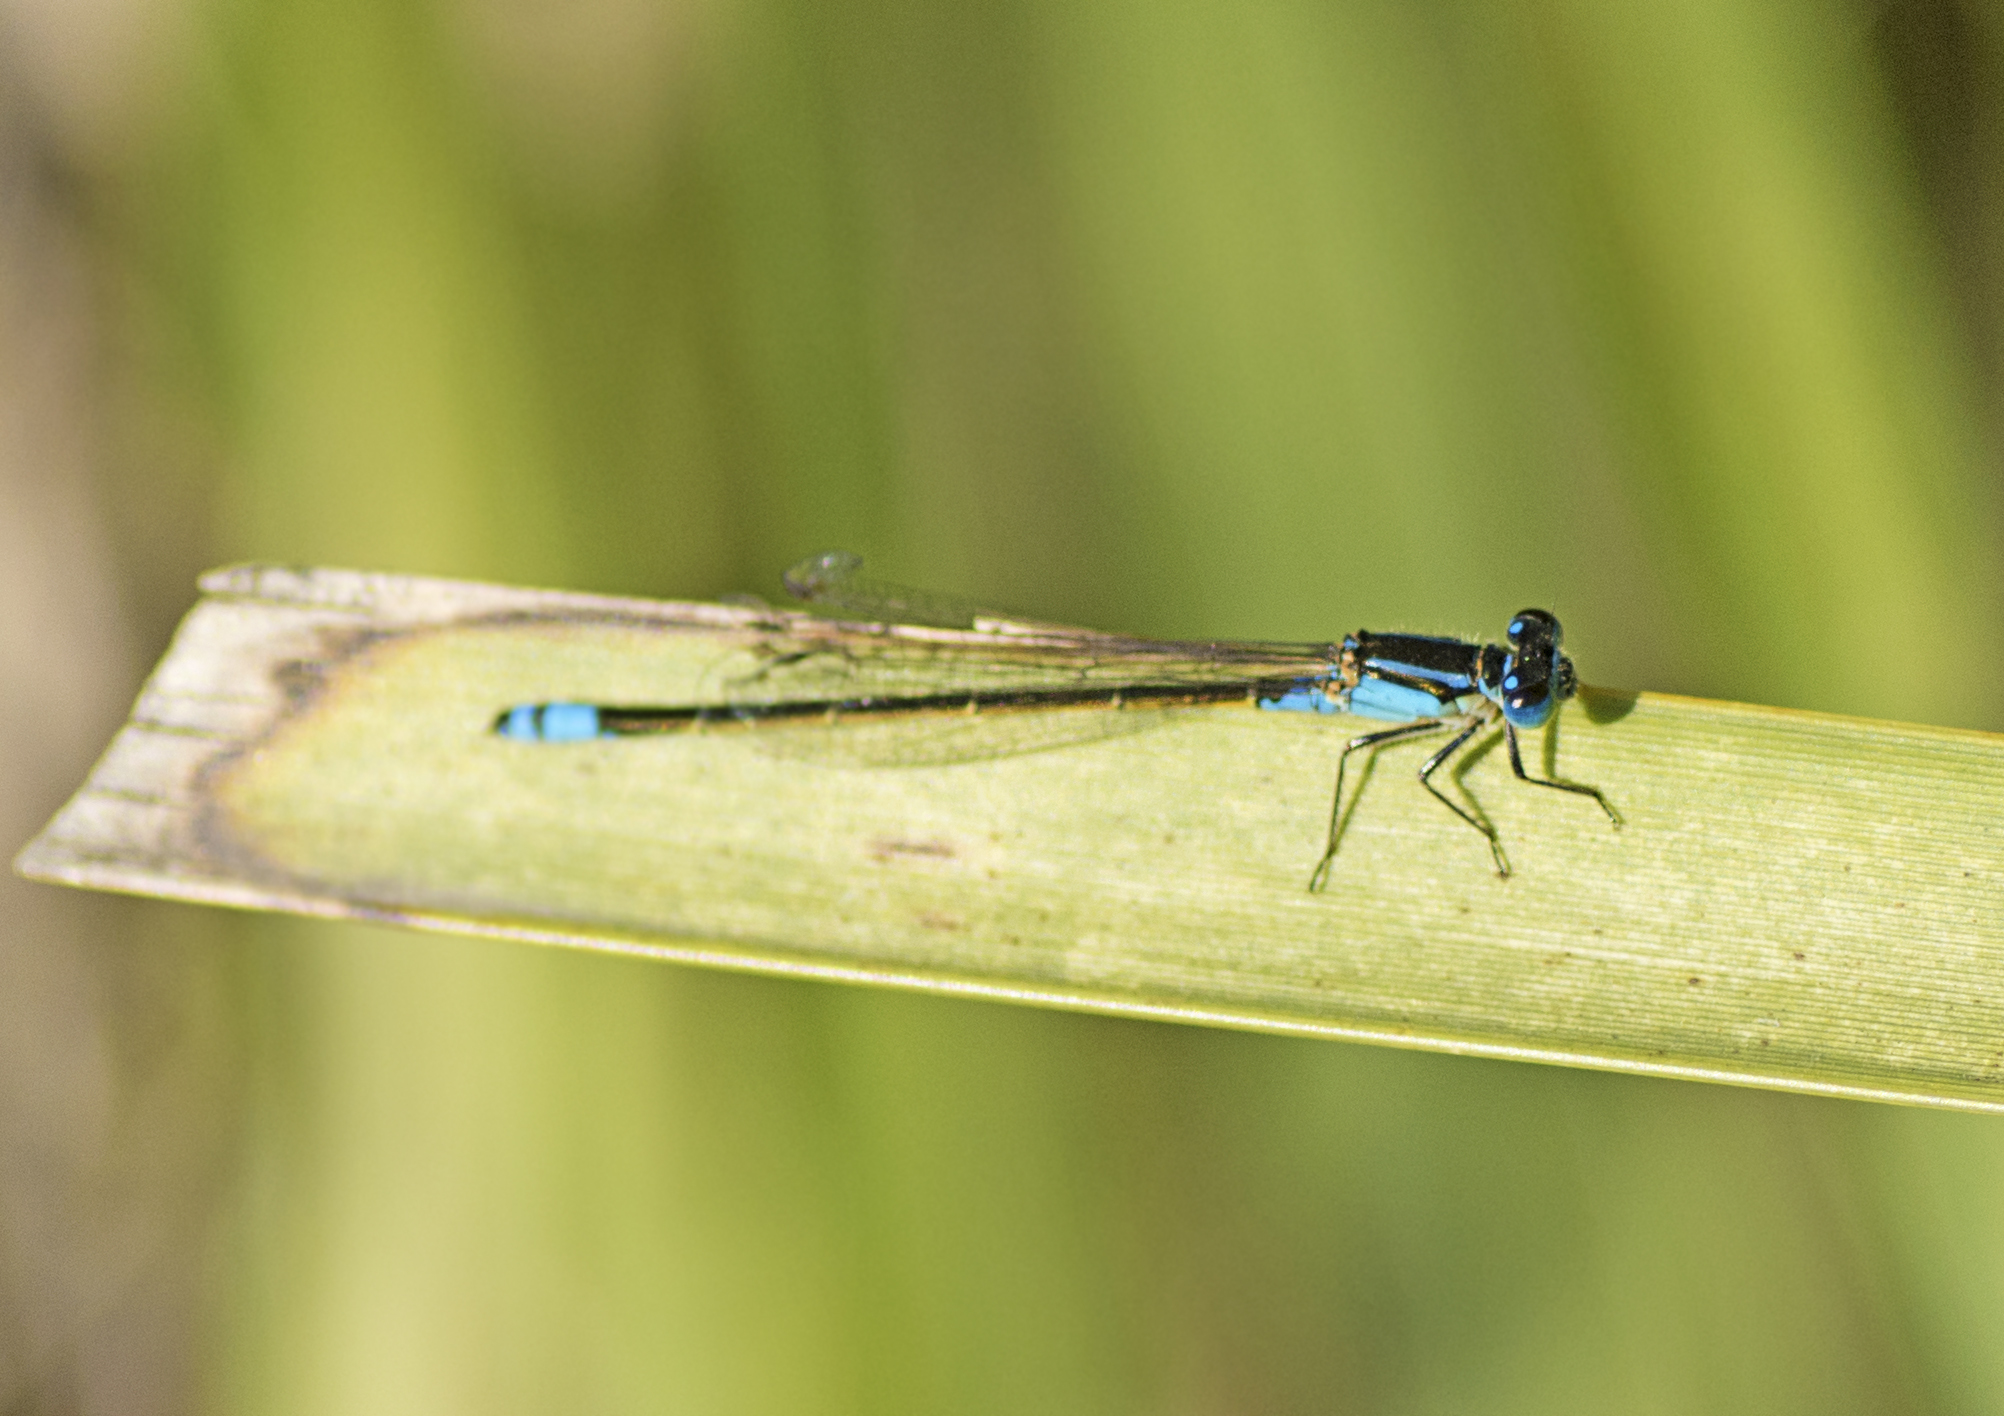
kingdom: Animalia
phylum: Arthropoda
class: Insecta
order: Odonata
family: Coenagrionidae
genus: Ischnura
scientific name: Ischnura heterosticta
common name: Common bluetail
